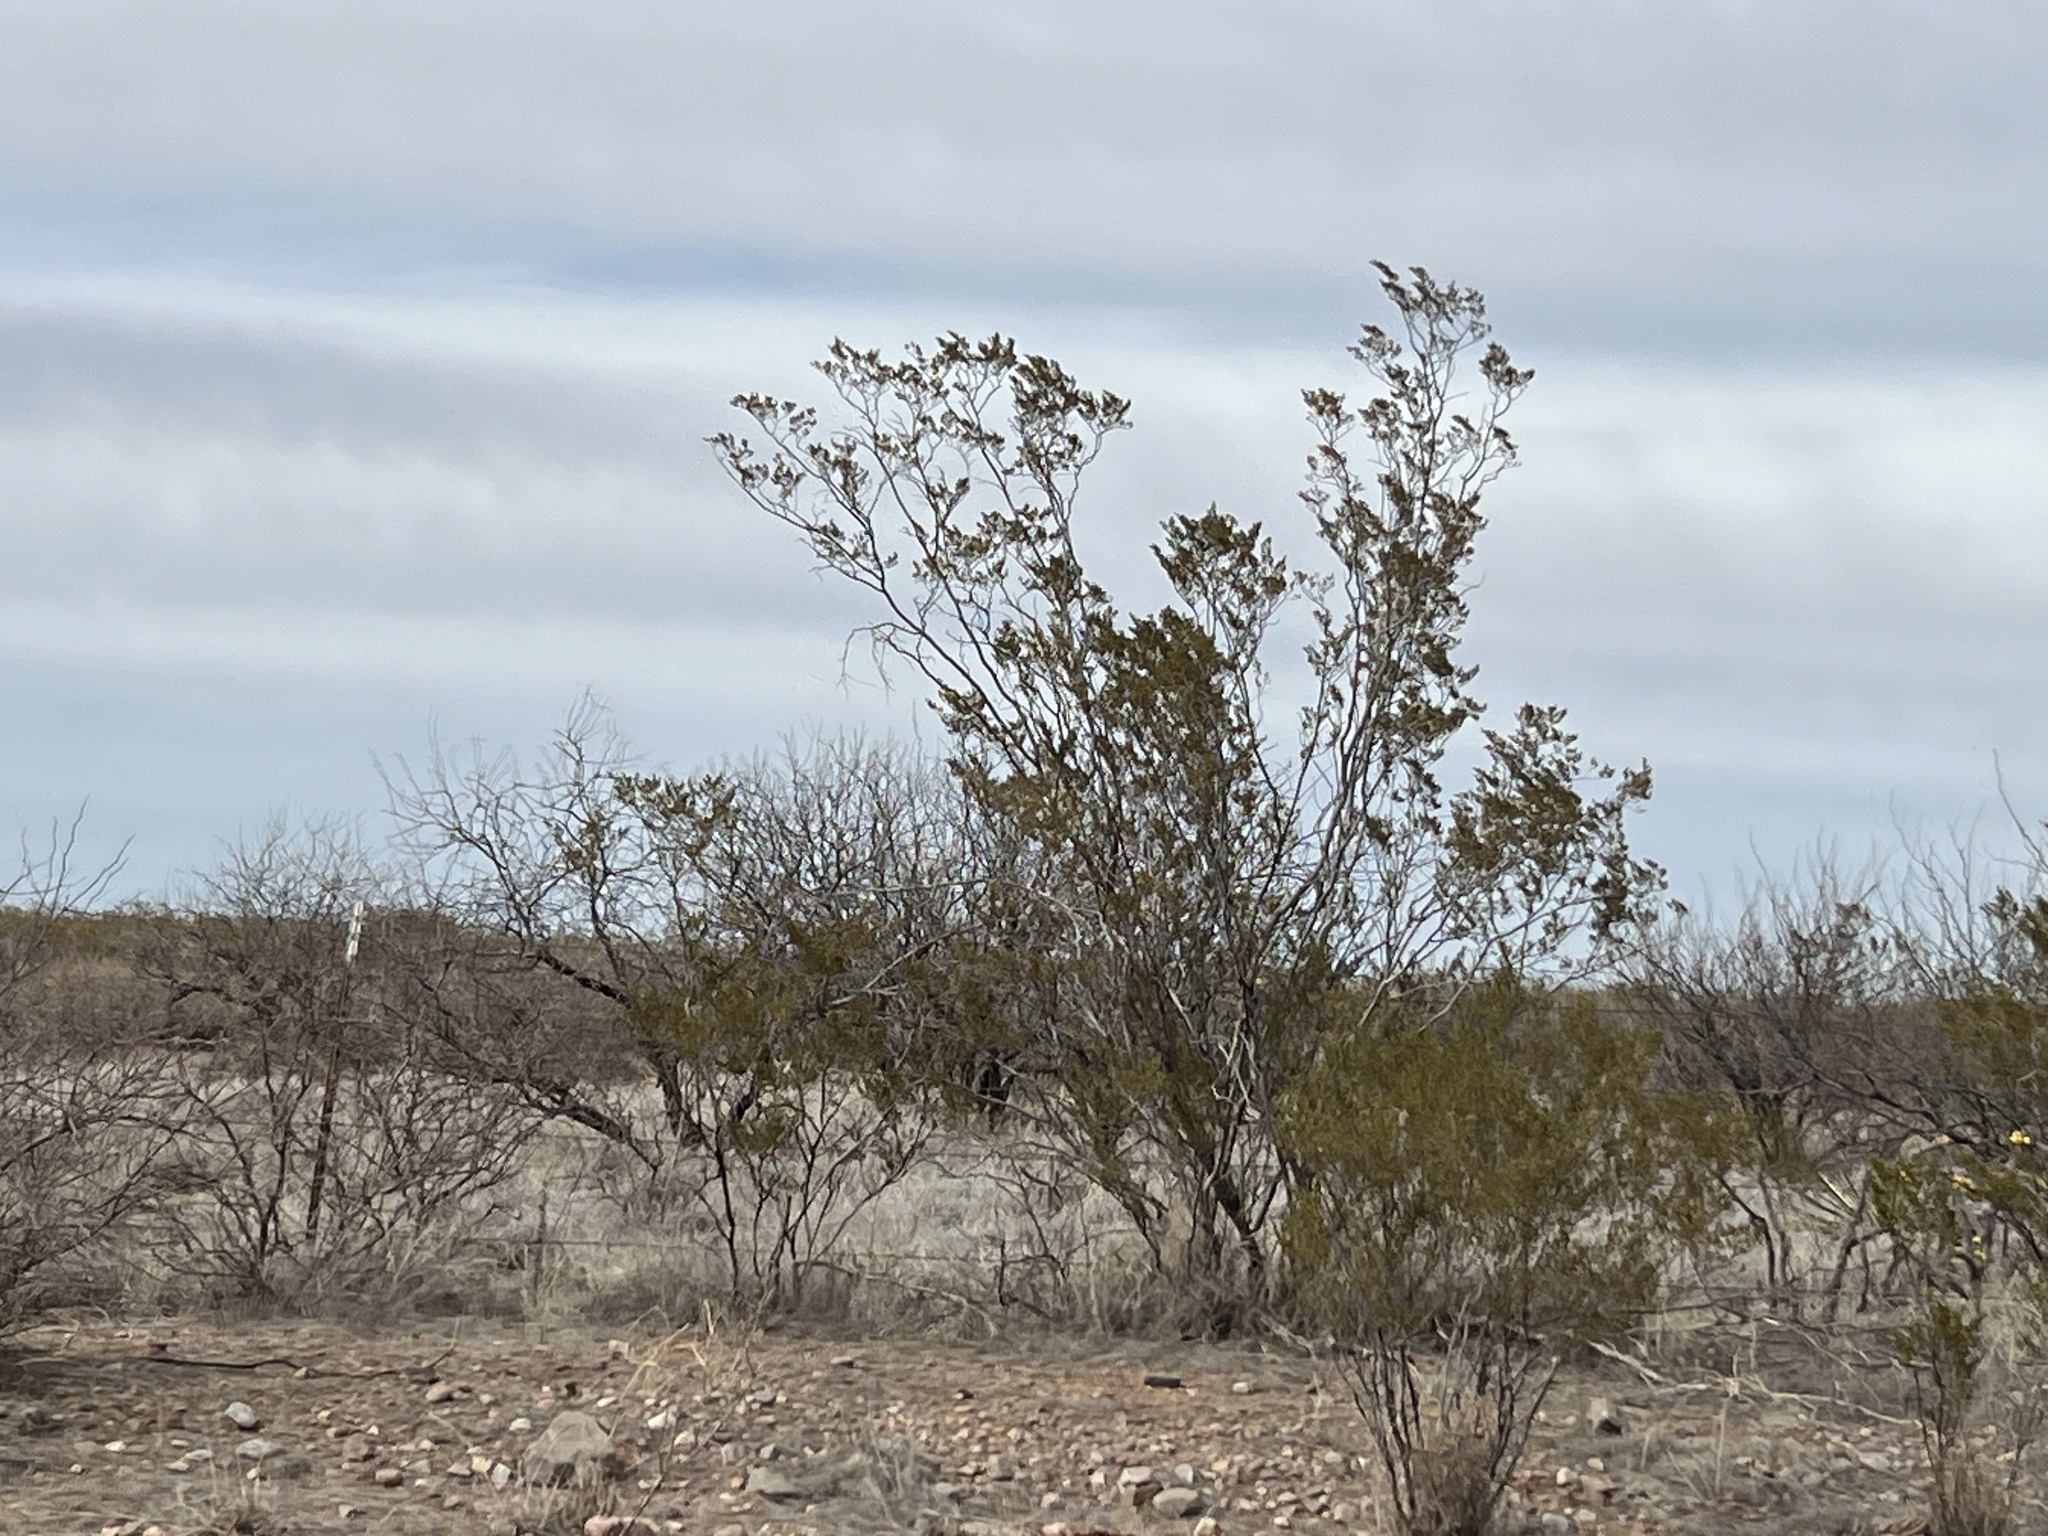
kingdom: Plantae
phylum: Tracheophyta
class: Magnoliopsida
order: Zygophyllales
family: Zygophyllaceae
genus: Larrea
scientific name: Larrea tridentata
